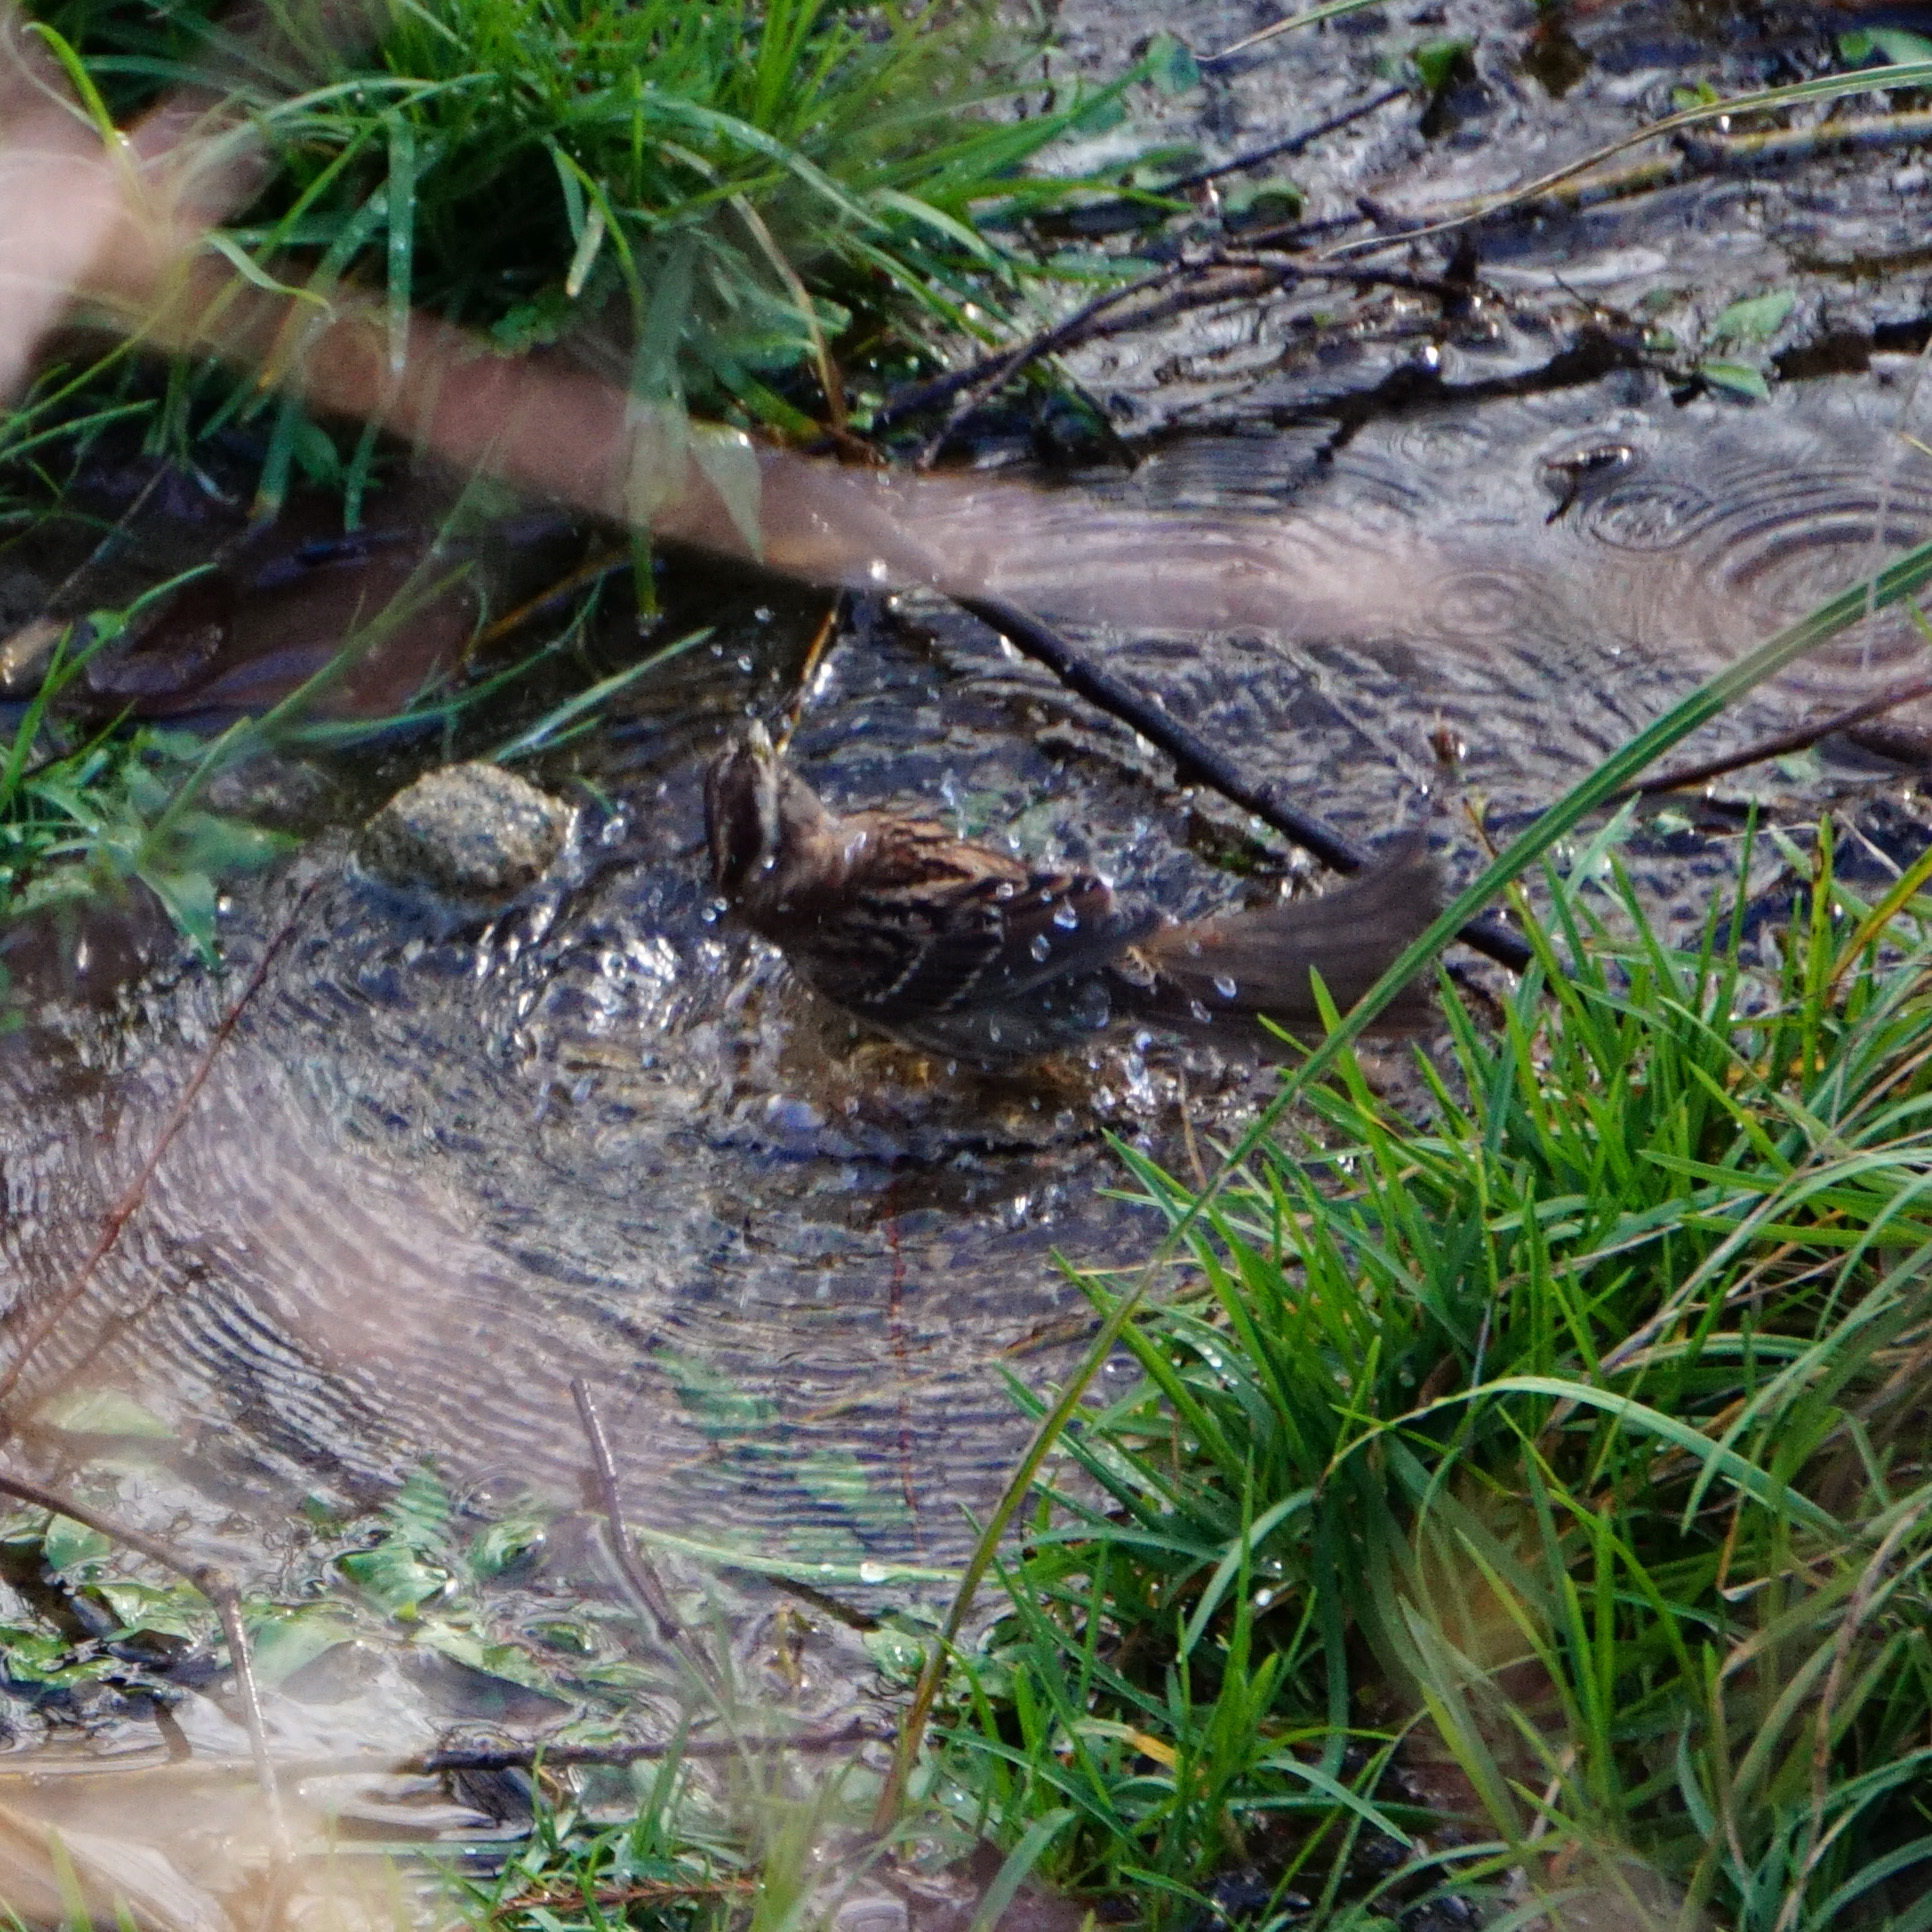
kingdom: Animalia
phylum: Chordata
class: Aves
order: Passeriformes
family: Passerellidae
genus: Zonotrichia
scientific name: Zonotrichia albicollis
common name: White-throated sparrow
